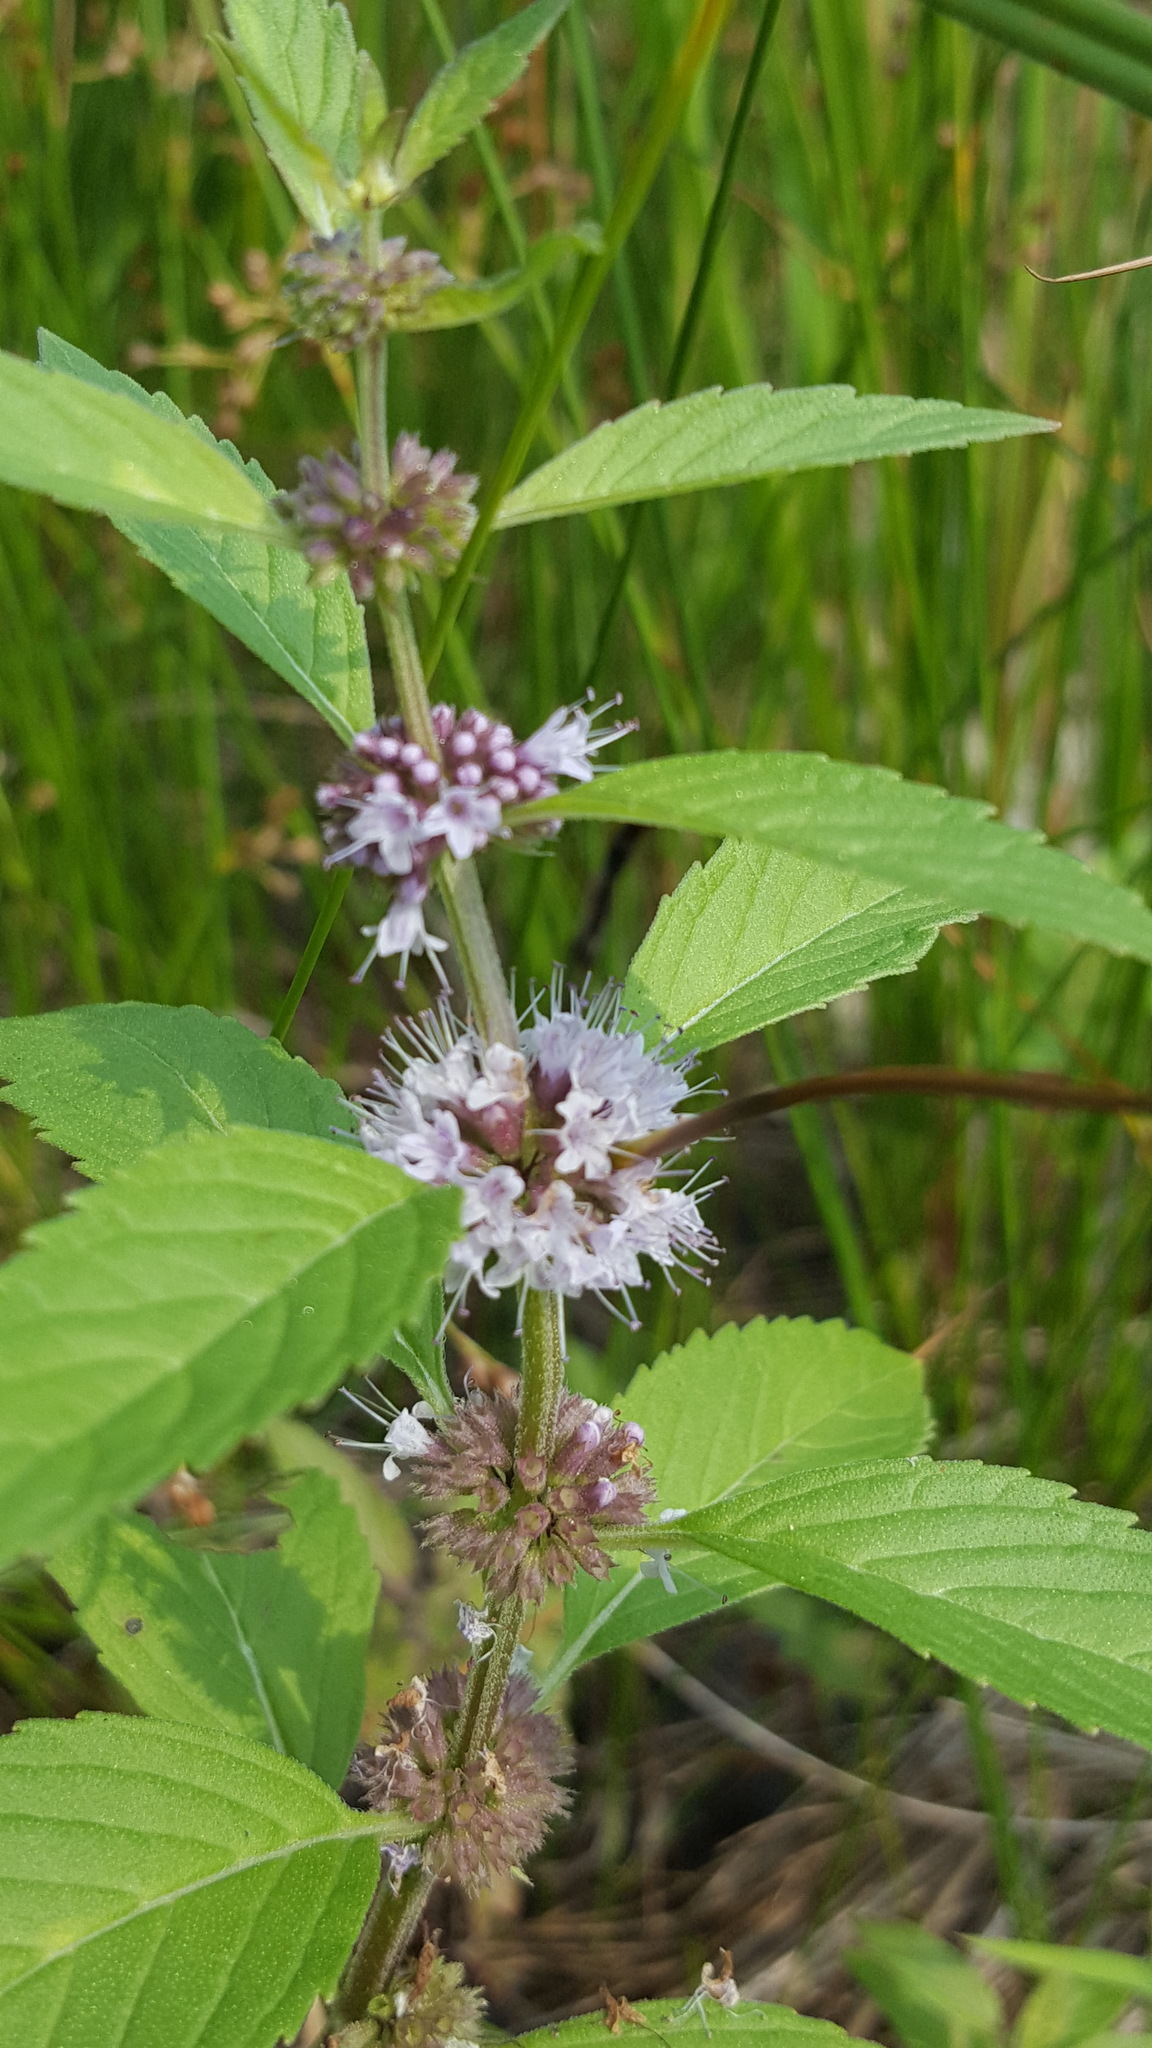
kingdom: Plantae
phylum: Tracheophyta
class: Magnoliopsida
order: Lamiales
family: Lamiaceae
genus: Mentha
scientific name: Mentha canadensis
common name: American corn mint
